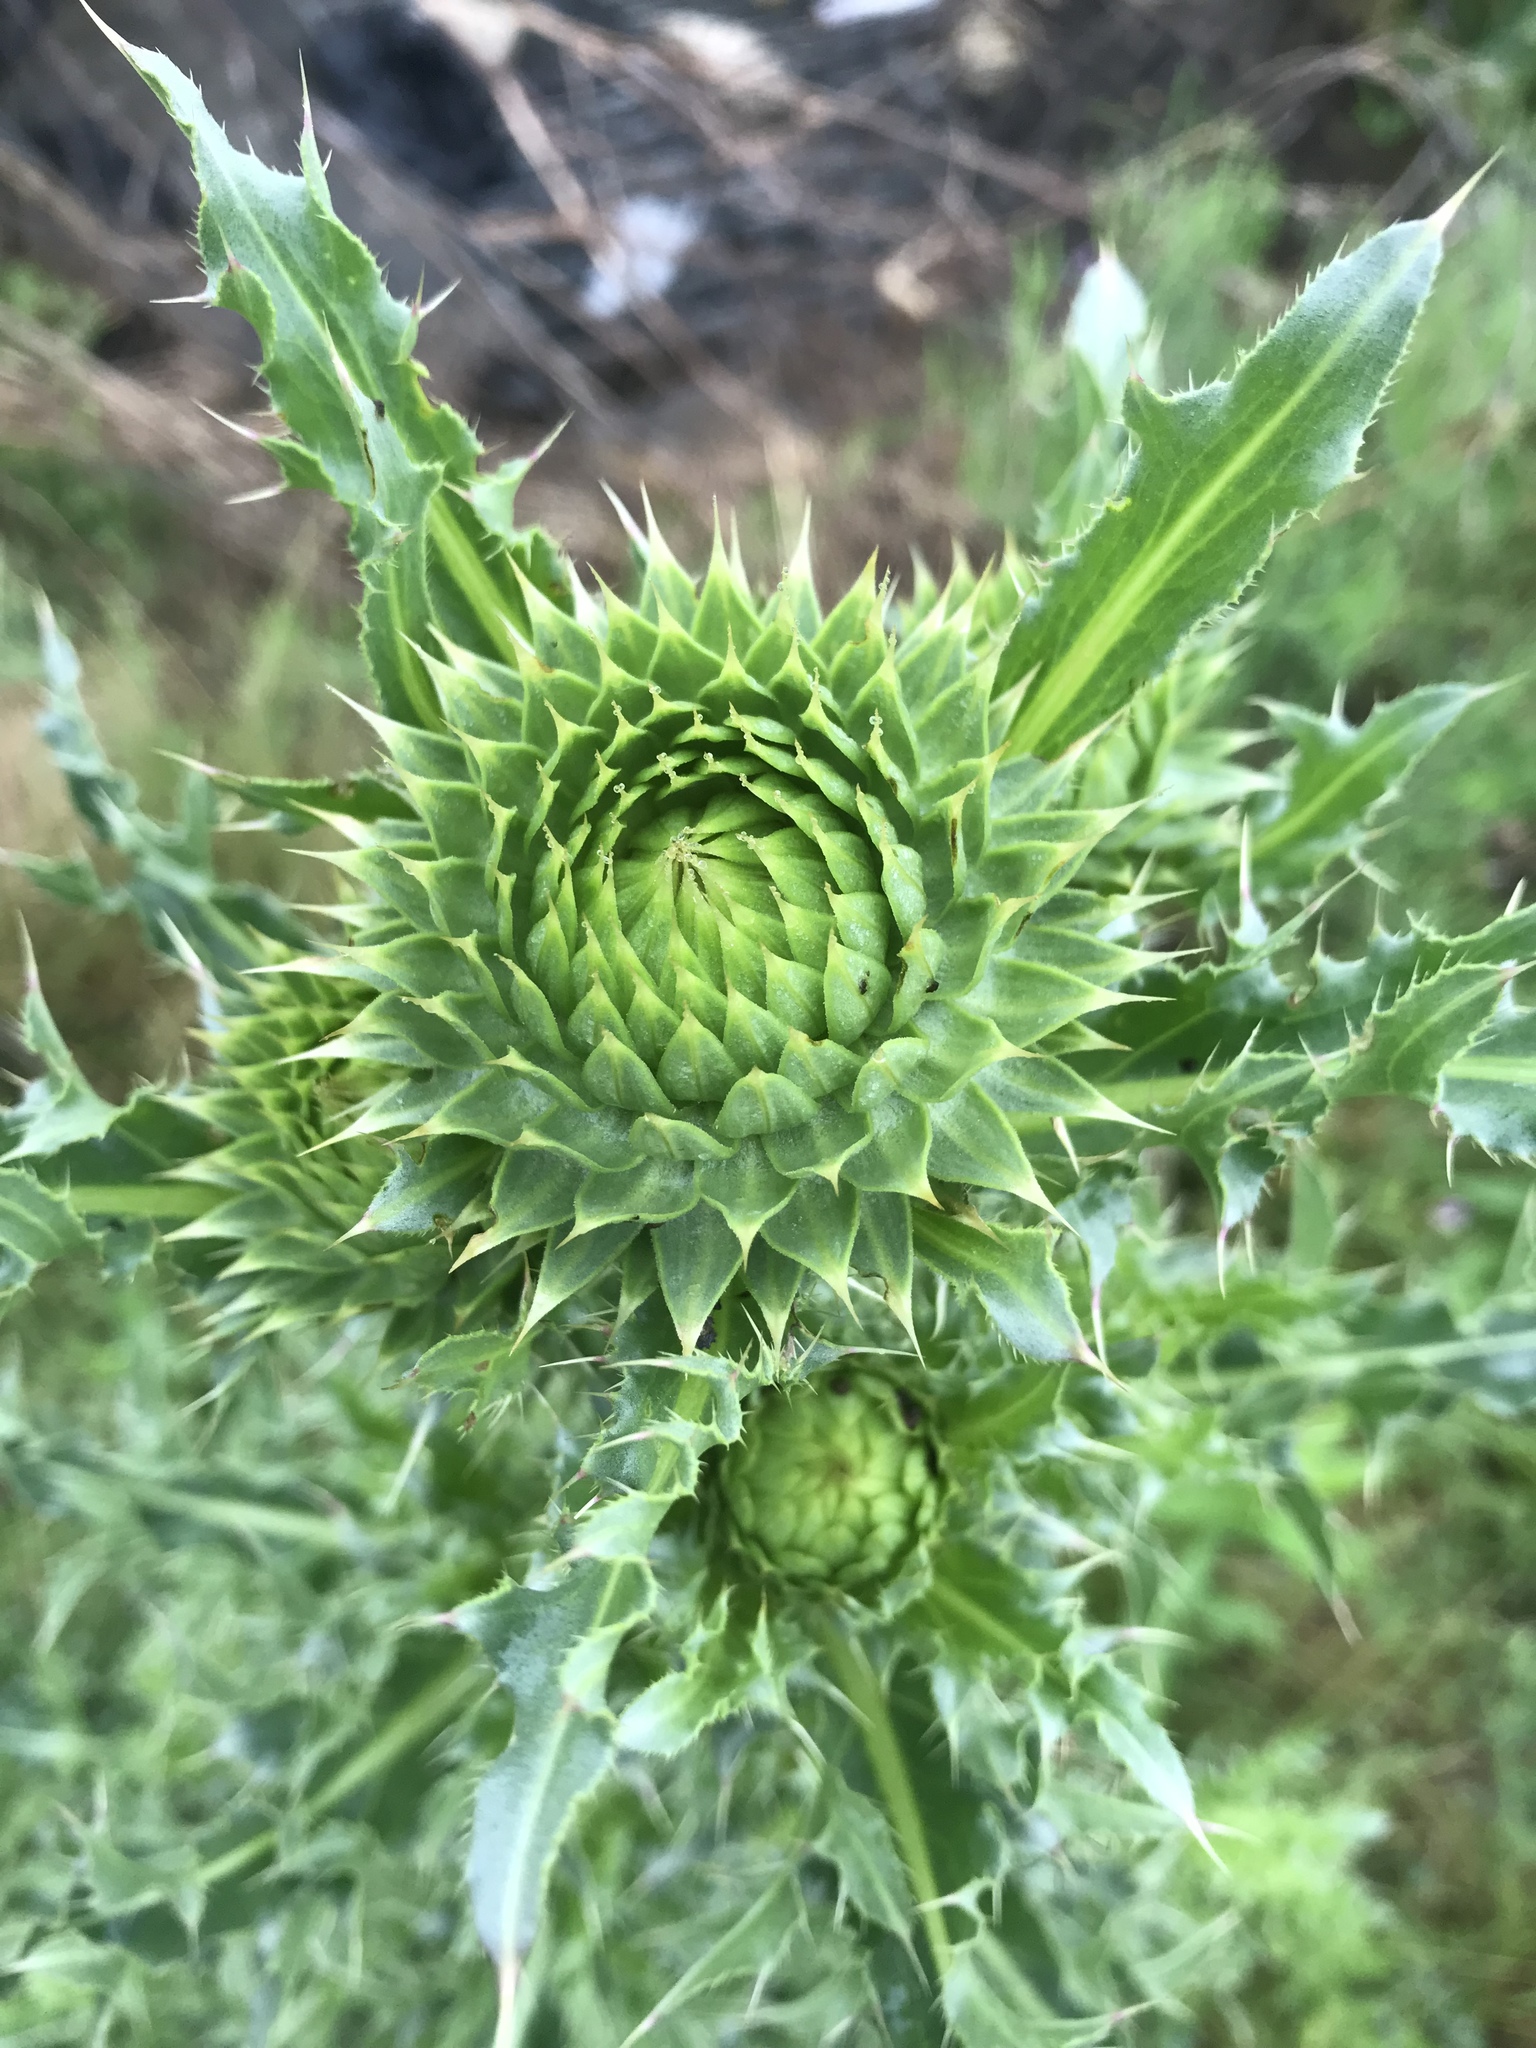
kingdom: Plantae
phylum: Tracheophyta
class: Magnoliopsida
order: Asterales
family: Asteraceae
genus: Carduus
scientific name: Carduus nutans
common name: Musk thistle
